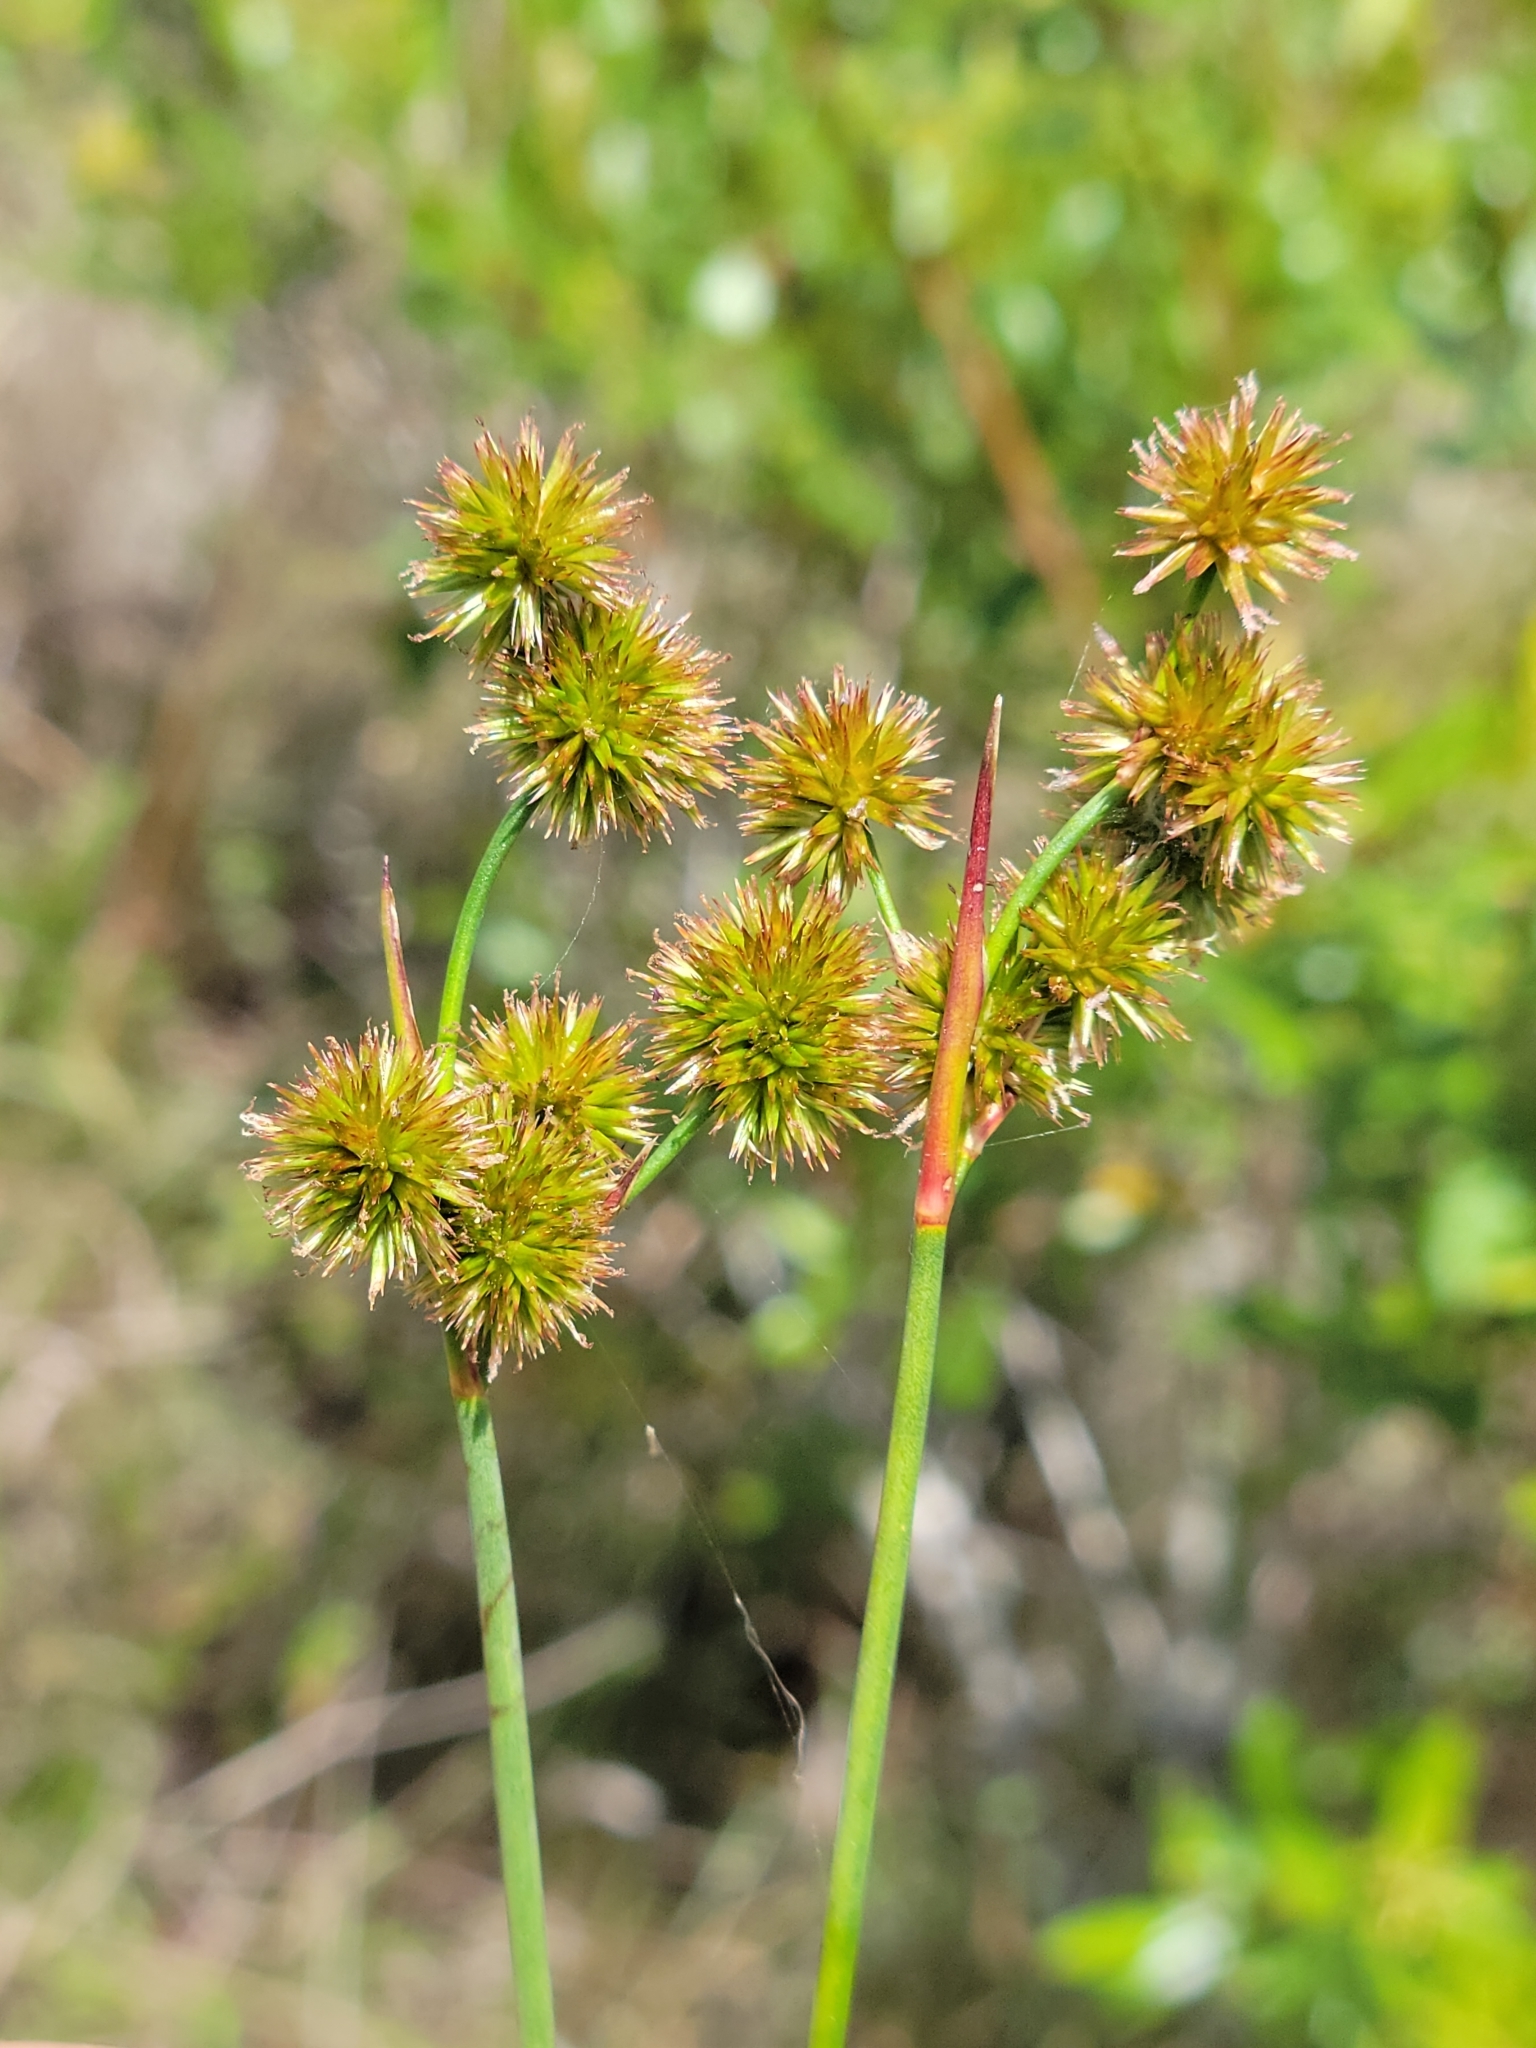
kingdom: Plantae
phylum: Tracheophyta
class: Liliopsida
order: Poales
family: Juncaceae
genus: Juncus
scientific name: Juncus megacephalus
